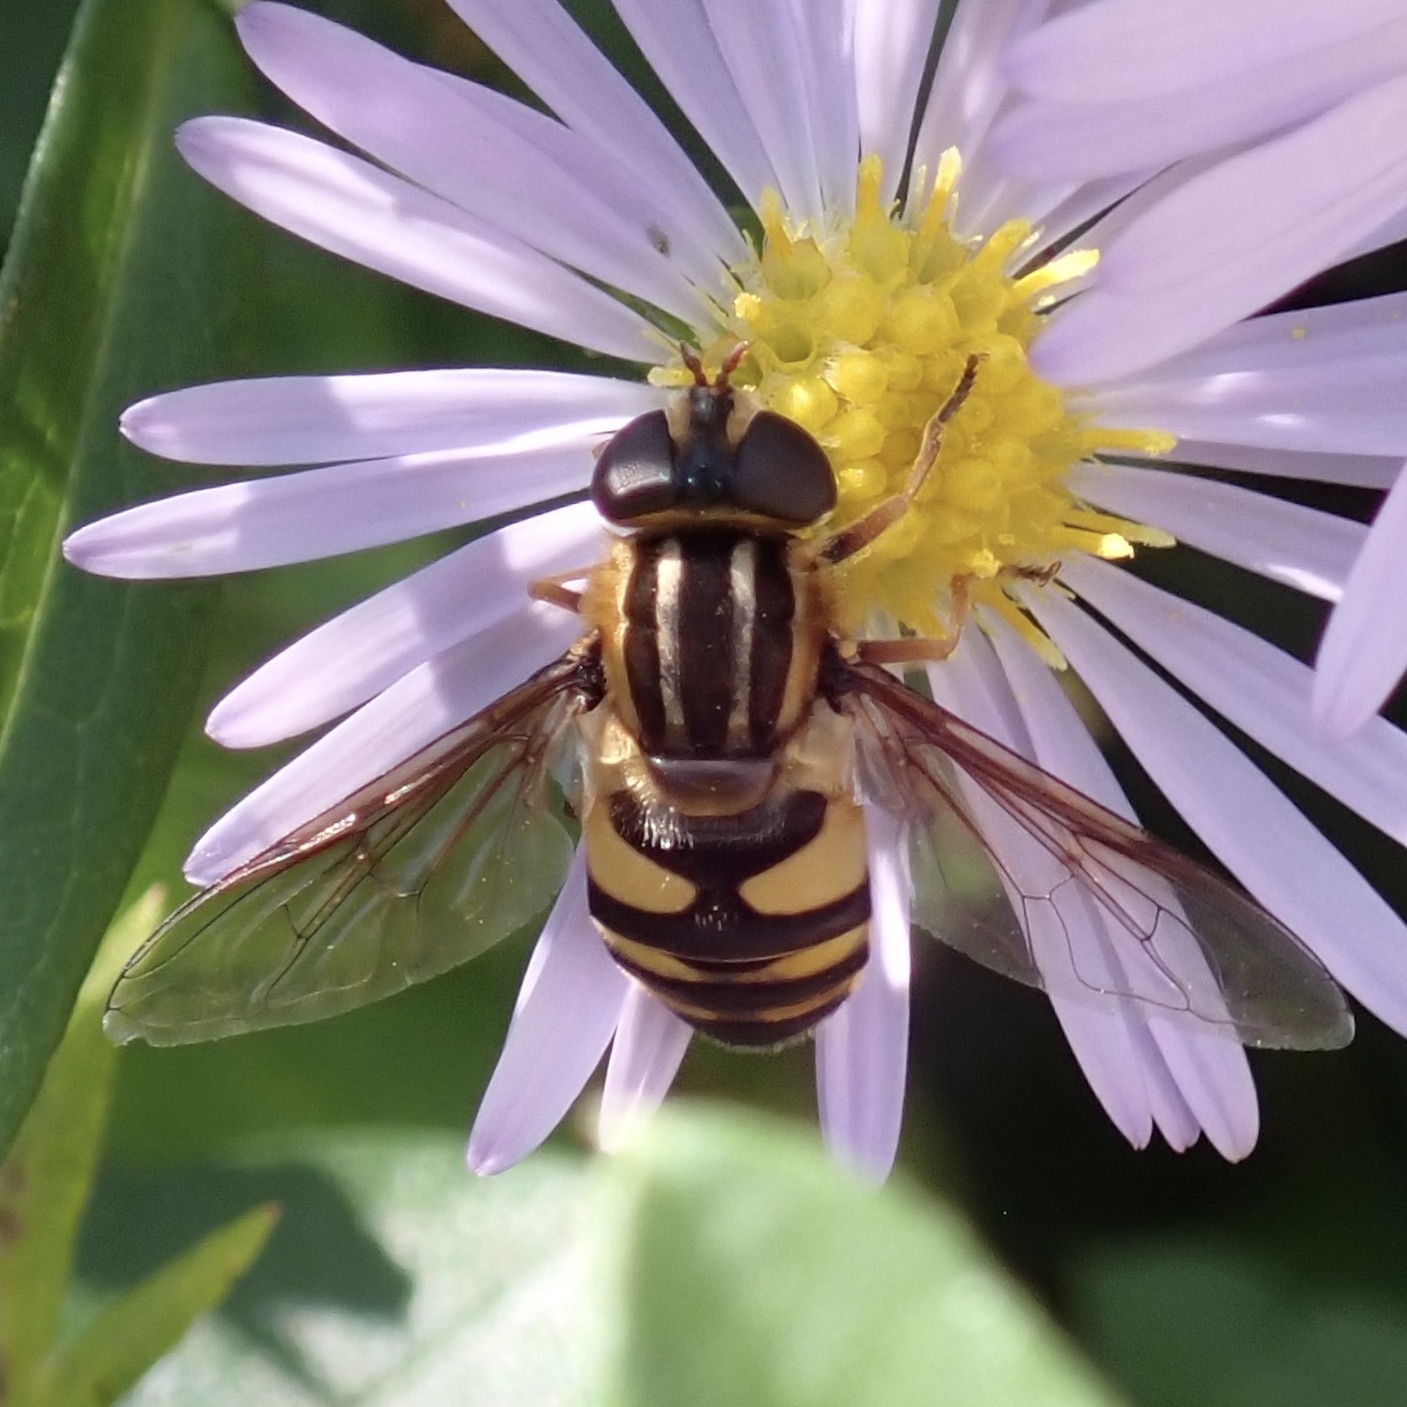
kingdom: Animalia
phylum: Arthropoda
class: Insecta
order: Diptera
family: Syrphidae
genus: Helophilus
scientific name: Helophilus fasciatus
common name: Narrow-headed marsh fly
